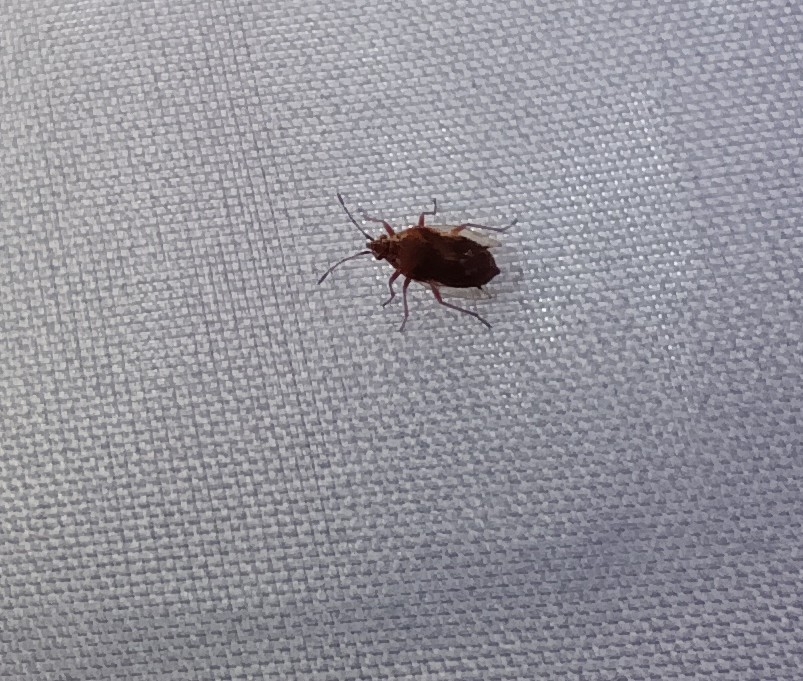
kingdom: Animalia
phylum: Arthropoda
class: Insecta
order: Hemiptera
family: Lygaeidae
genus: Kleidocerys
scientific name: Kleidocerys resedae
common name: Birch catkin bug
